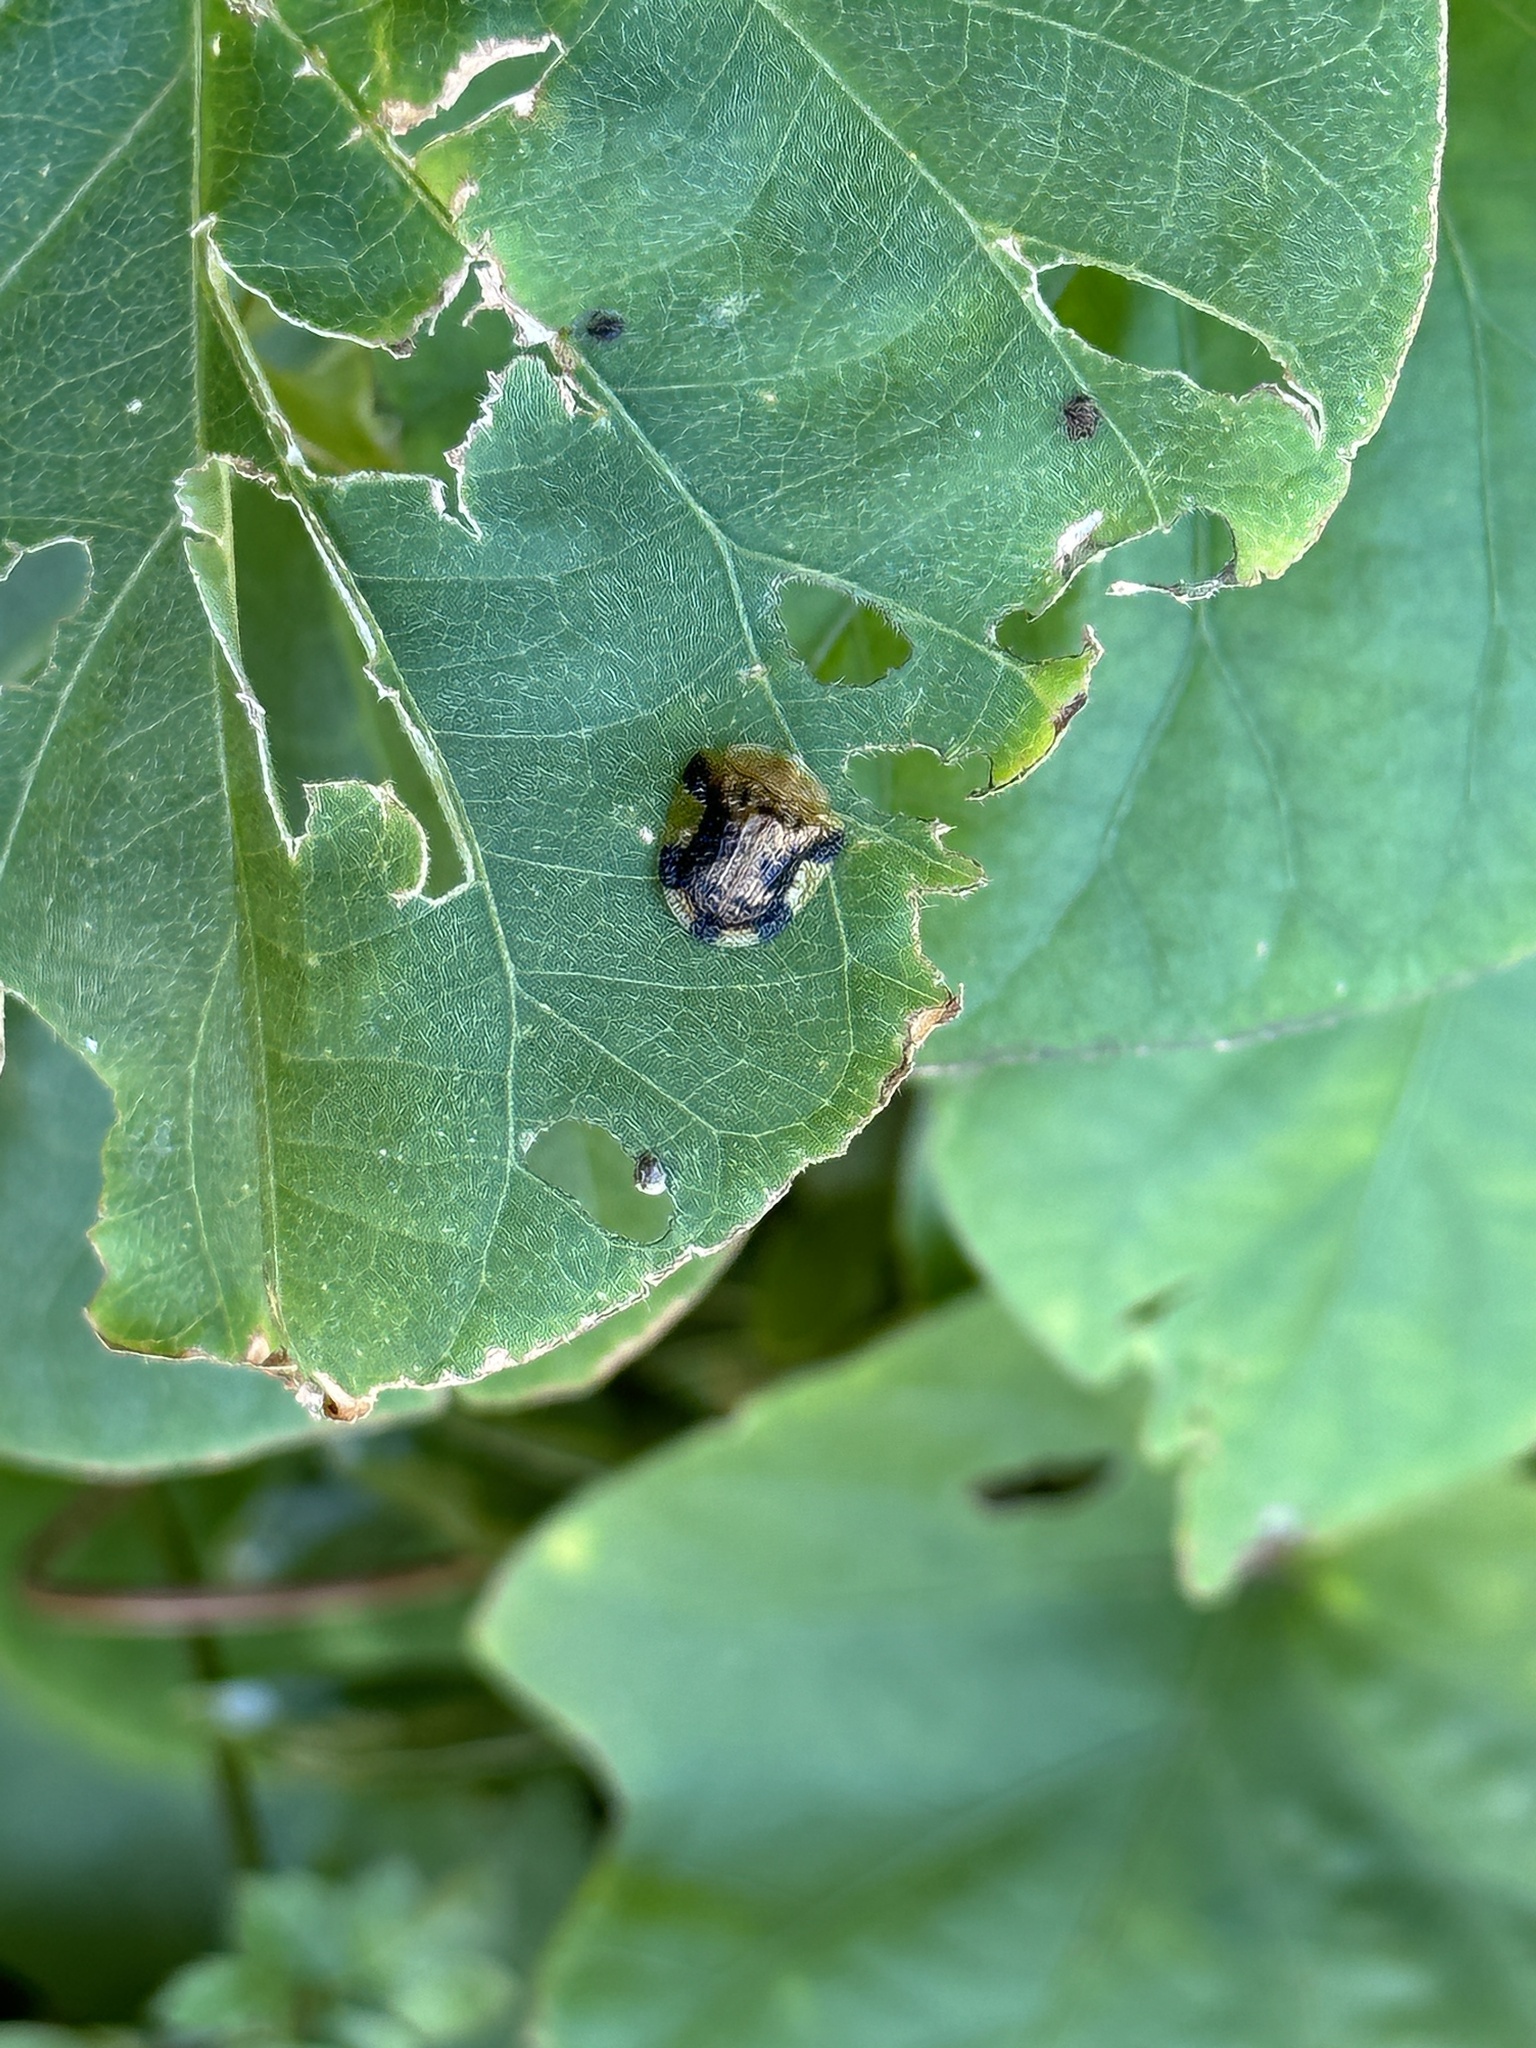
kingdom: Animalia
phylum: Arthropoda
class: Insecta
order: Coleoptera
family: Chrysomelidae
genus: Laccoptera
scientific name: Laccoptera nepalensis
